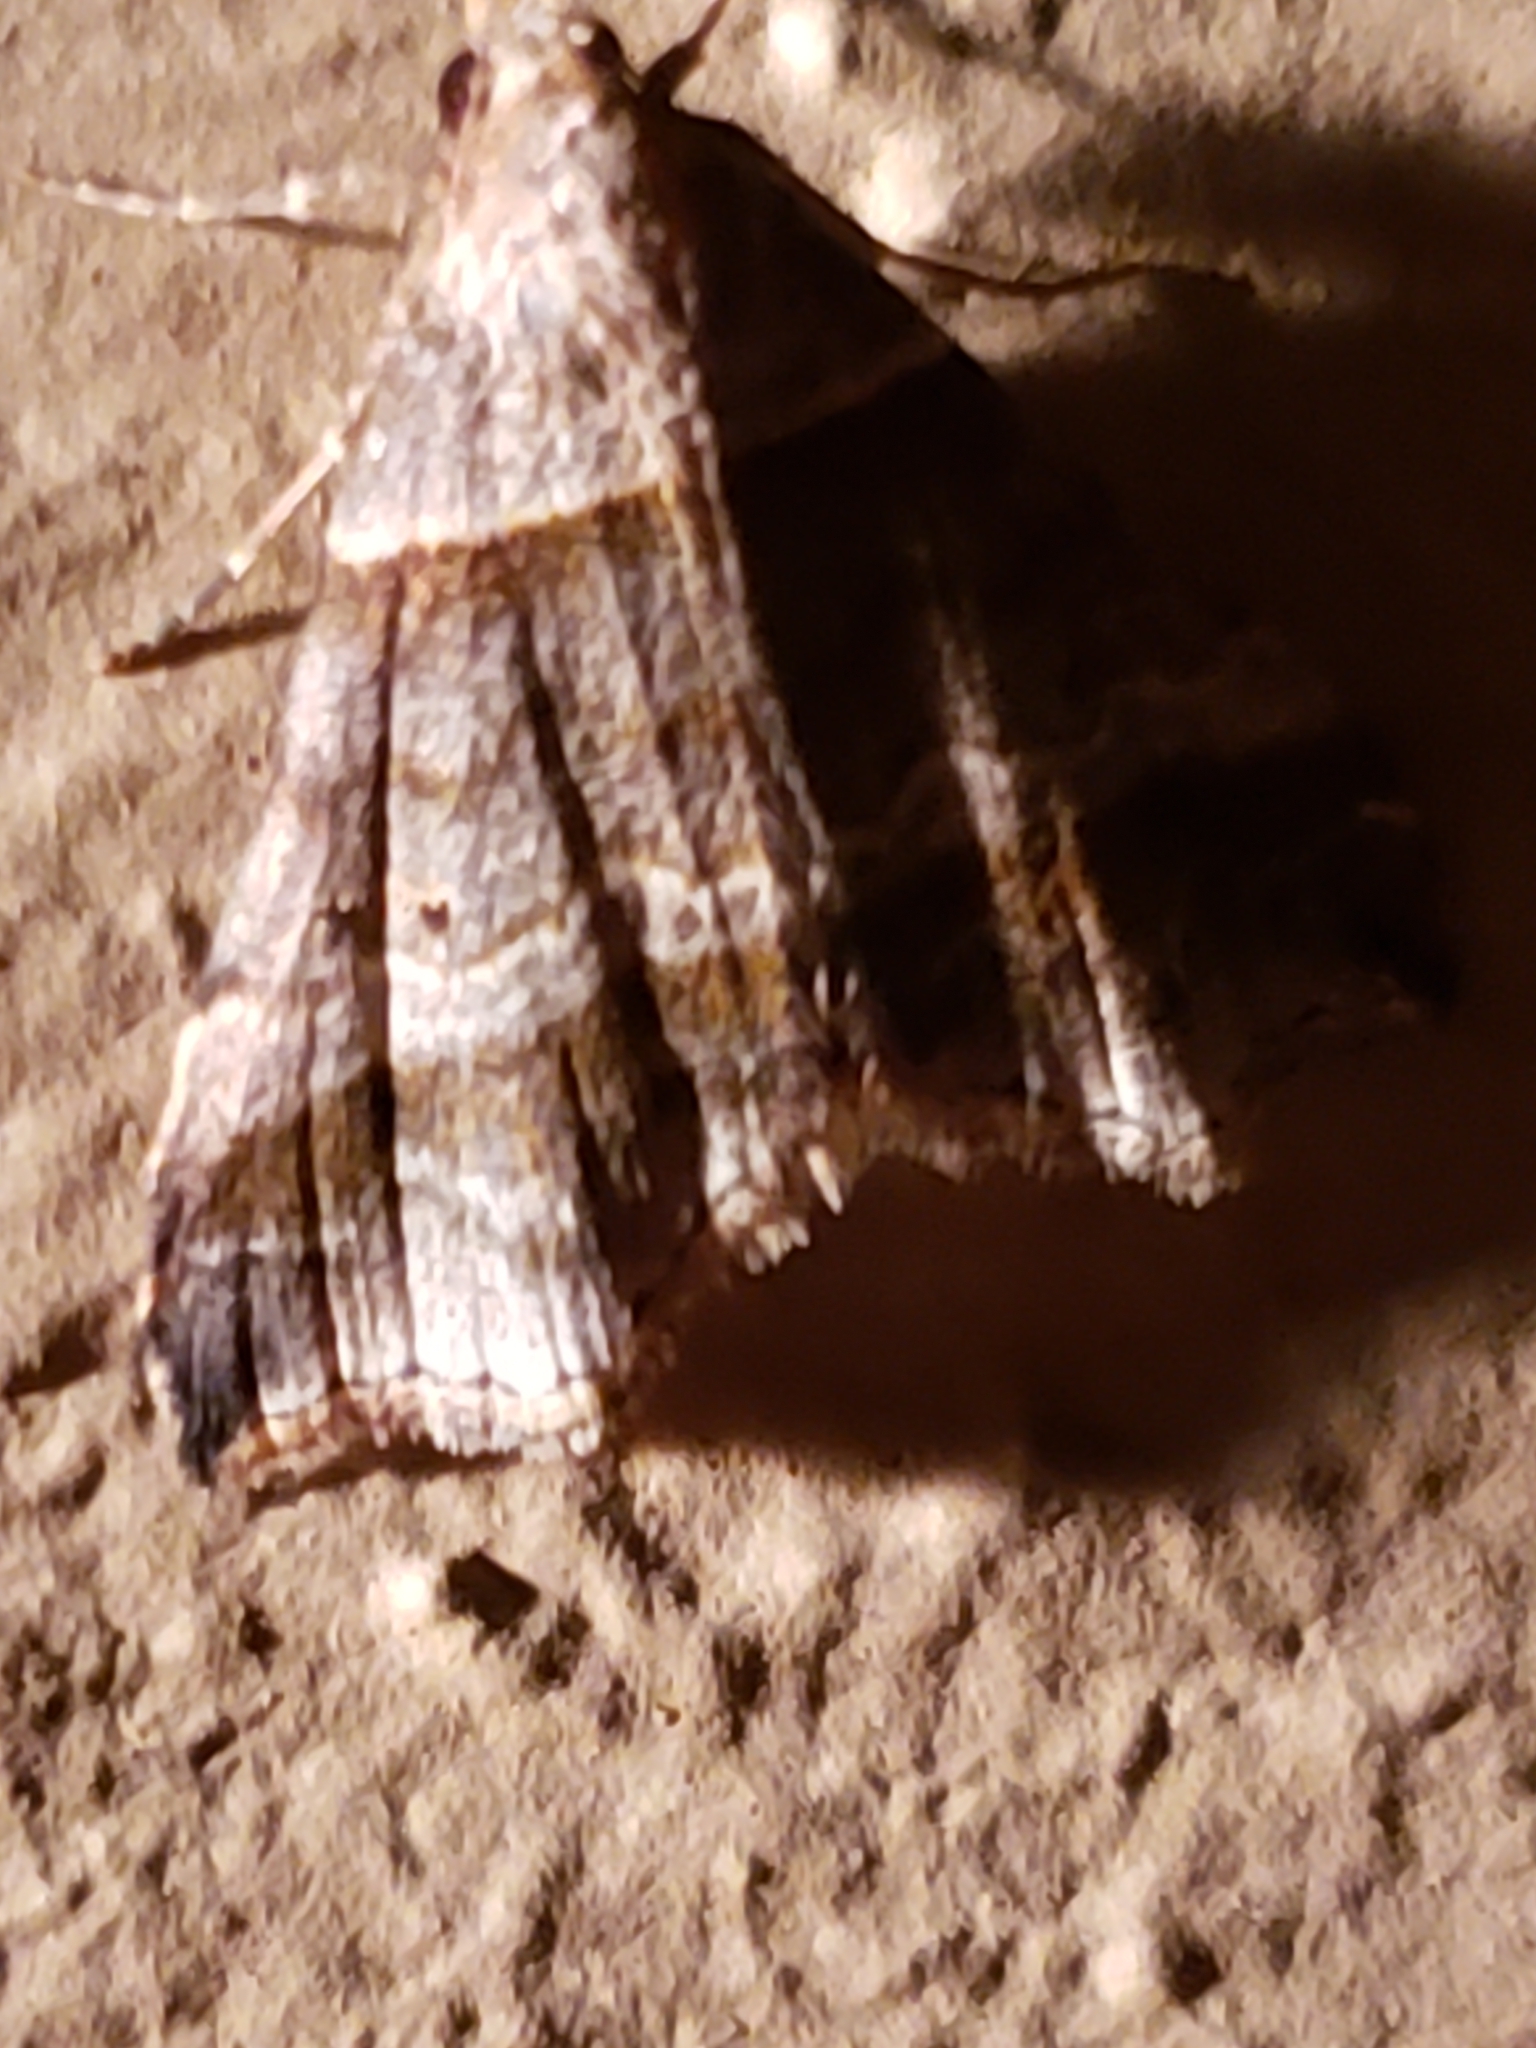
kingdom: Animalia
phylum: Arthropoda
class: Insecta
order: Lepidoptera
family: Erebidae
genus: Phaeolita
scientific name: Phaeolita pyramusalis
